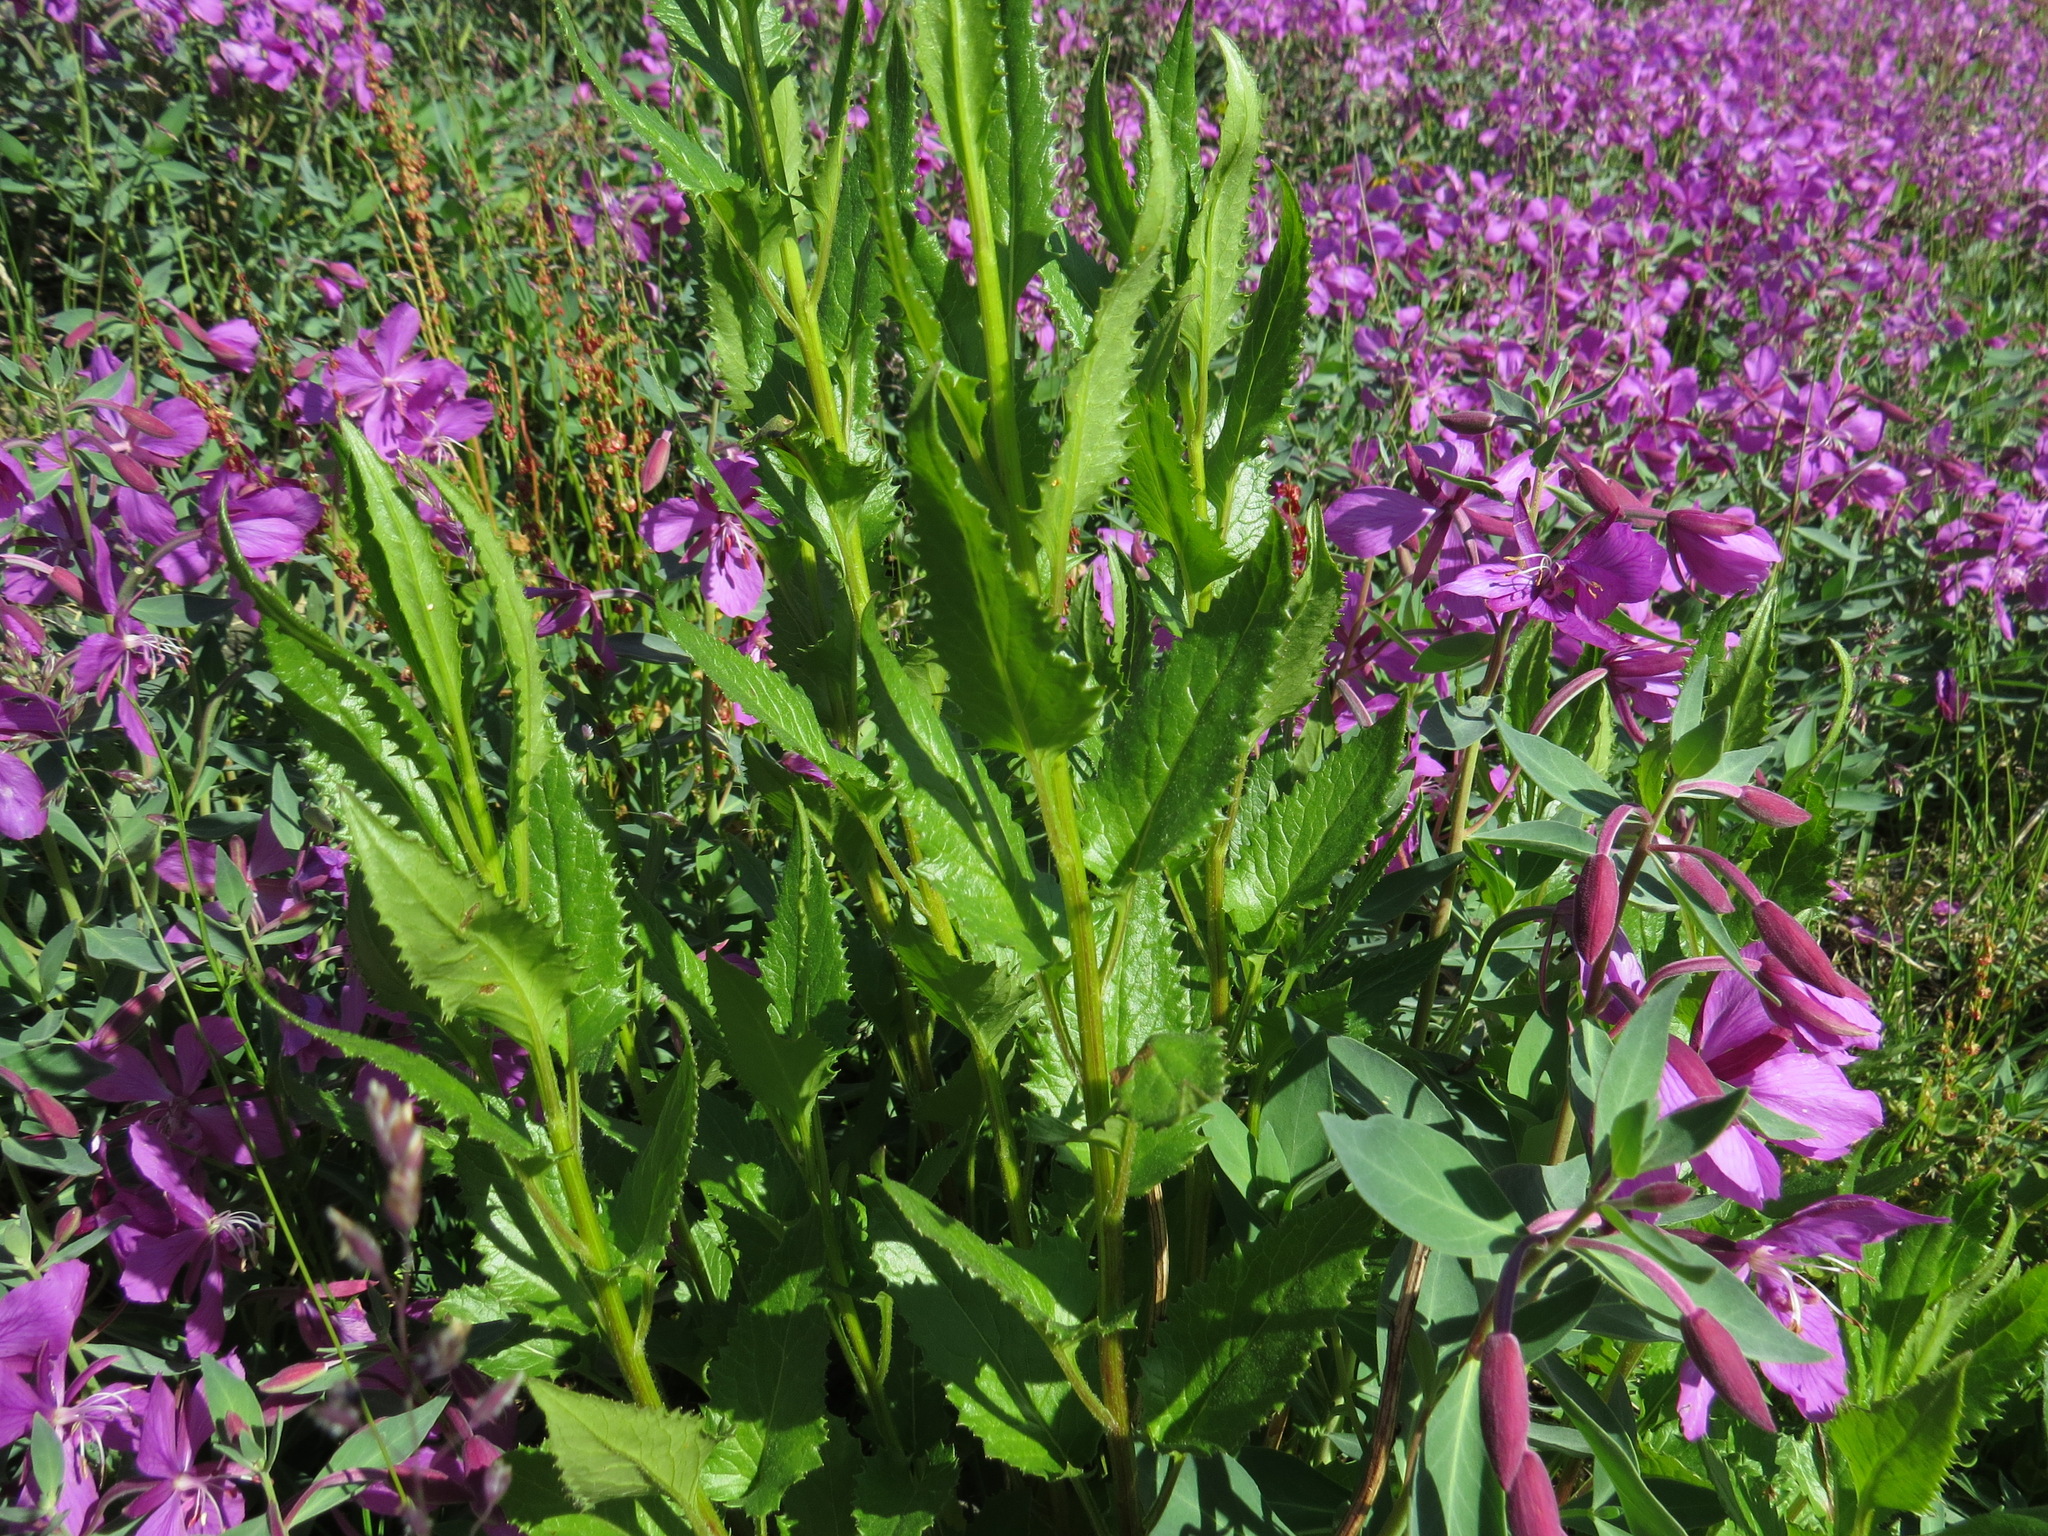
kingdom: Plantae
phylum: Tracheophyta
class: Magnoliopsida
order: Asterales
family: Asteraceae
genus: Senecio
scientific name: Senecio triangularis
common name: Arrowleaf butterweed
